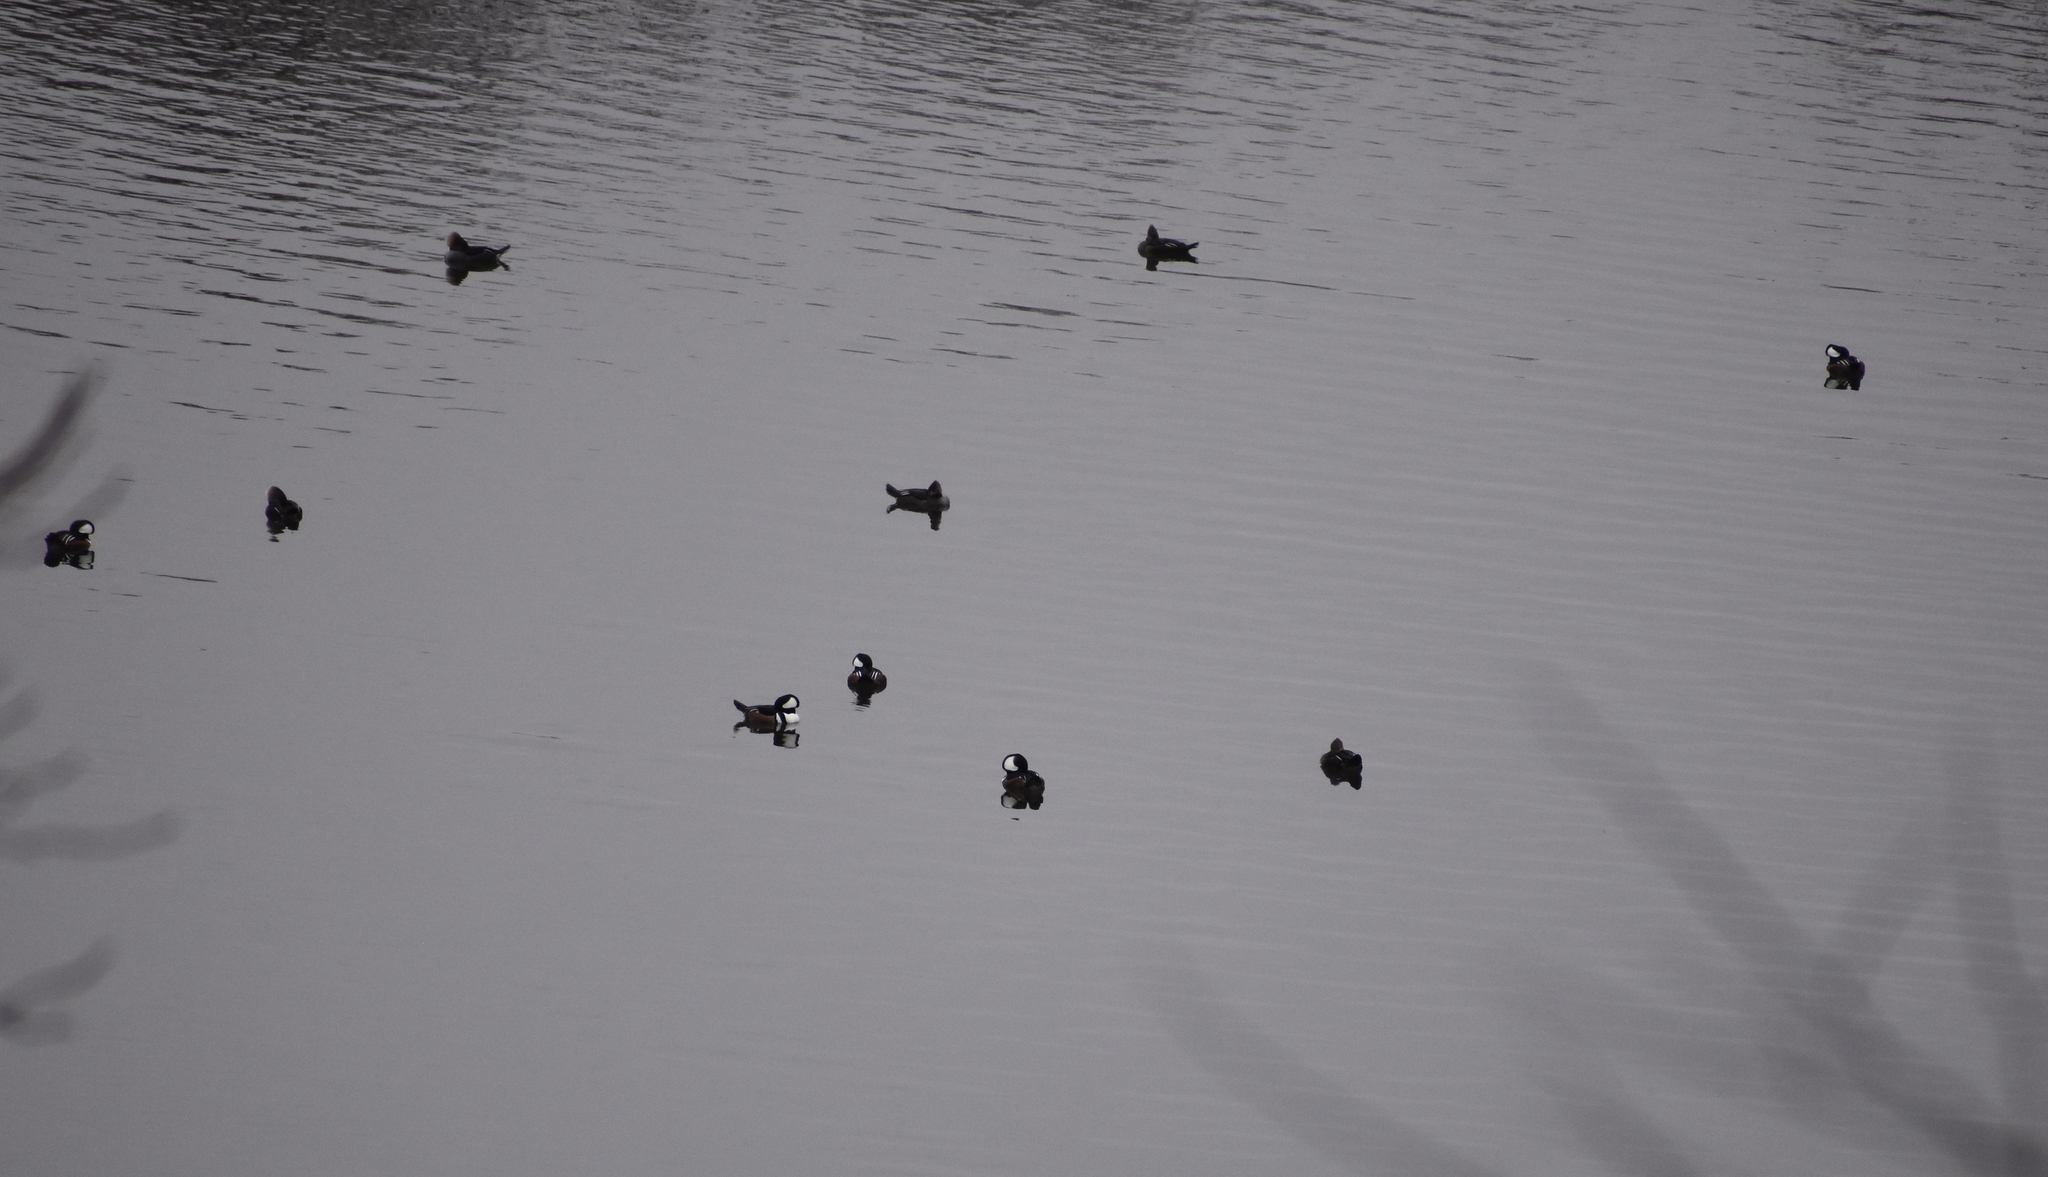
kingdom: Animalia
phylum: Chordata
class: Aves
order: Anseriformes
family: Anatidae
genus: Lophodytes
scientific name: Lophodytes cucullatus
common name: Hooded merganser
